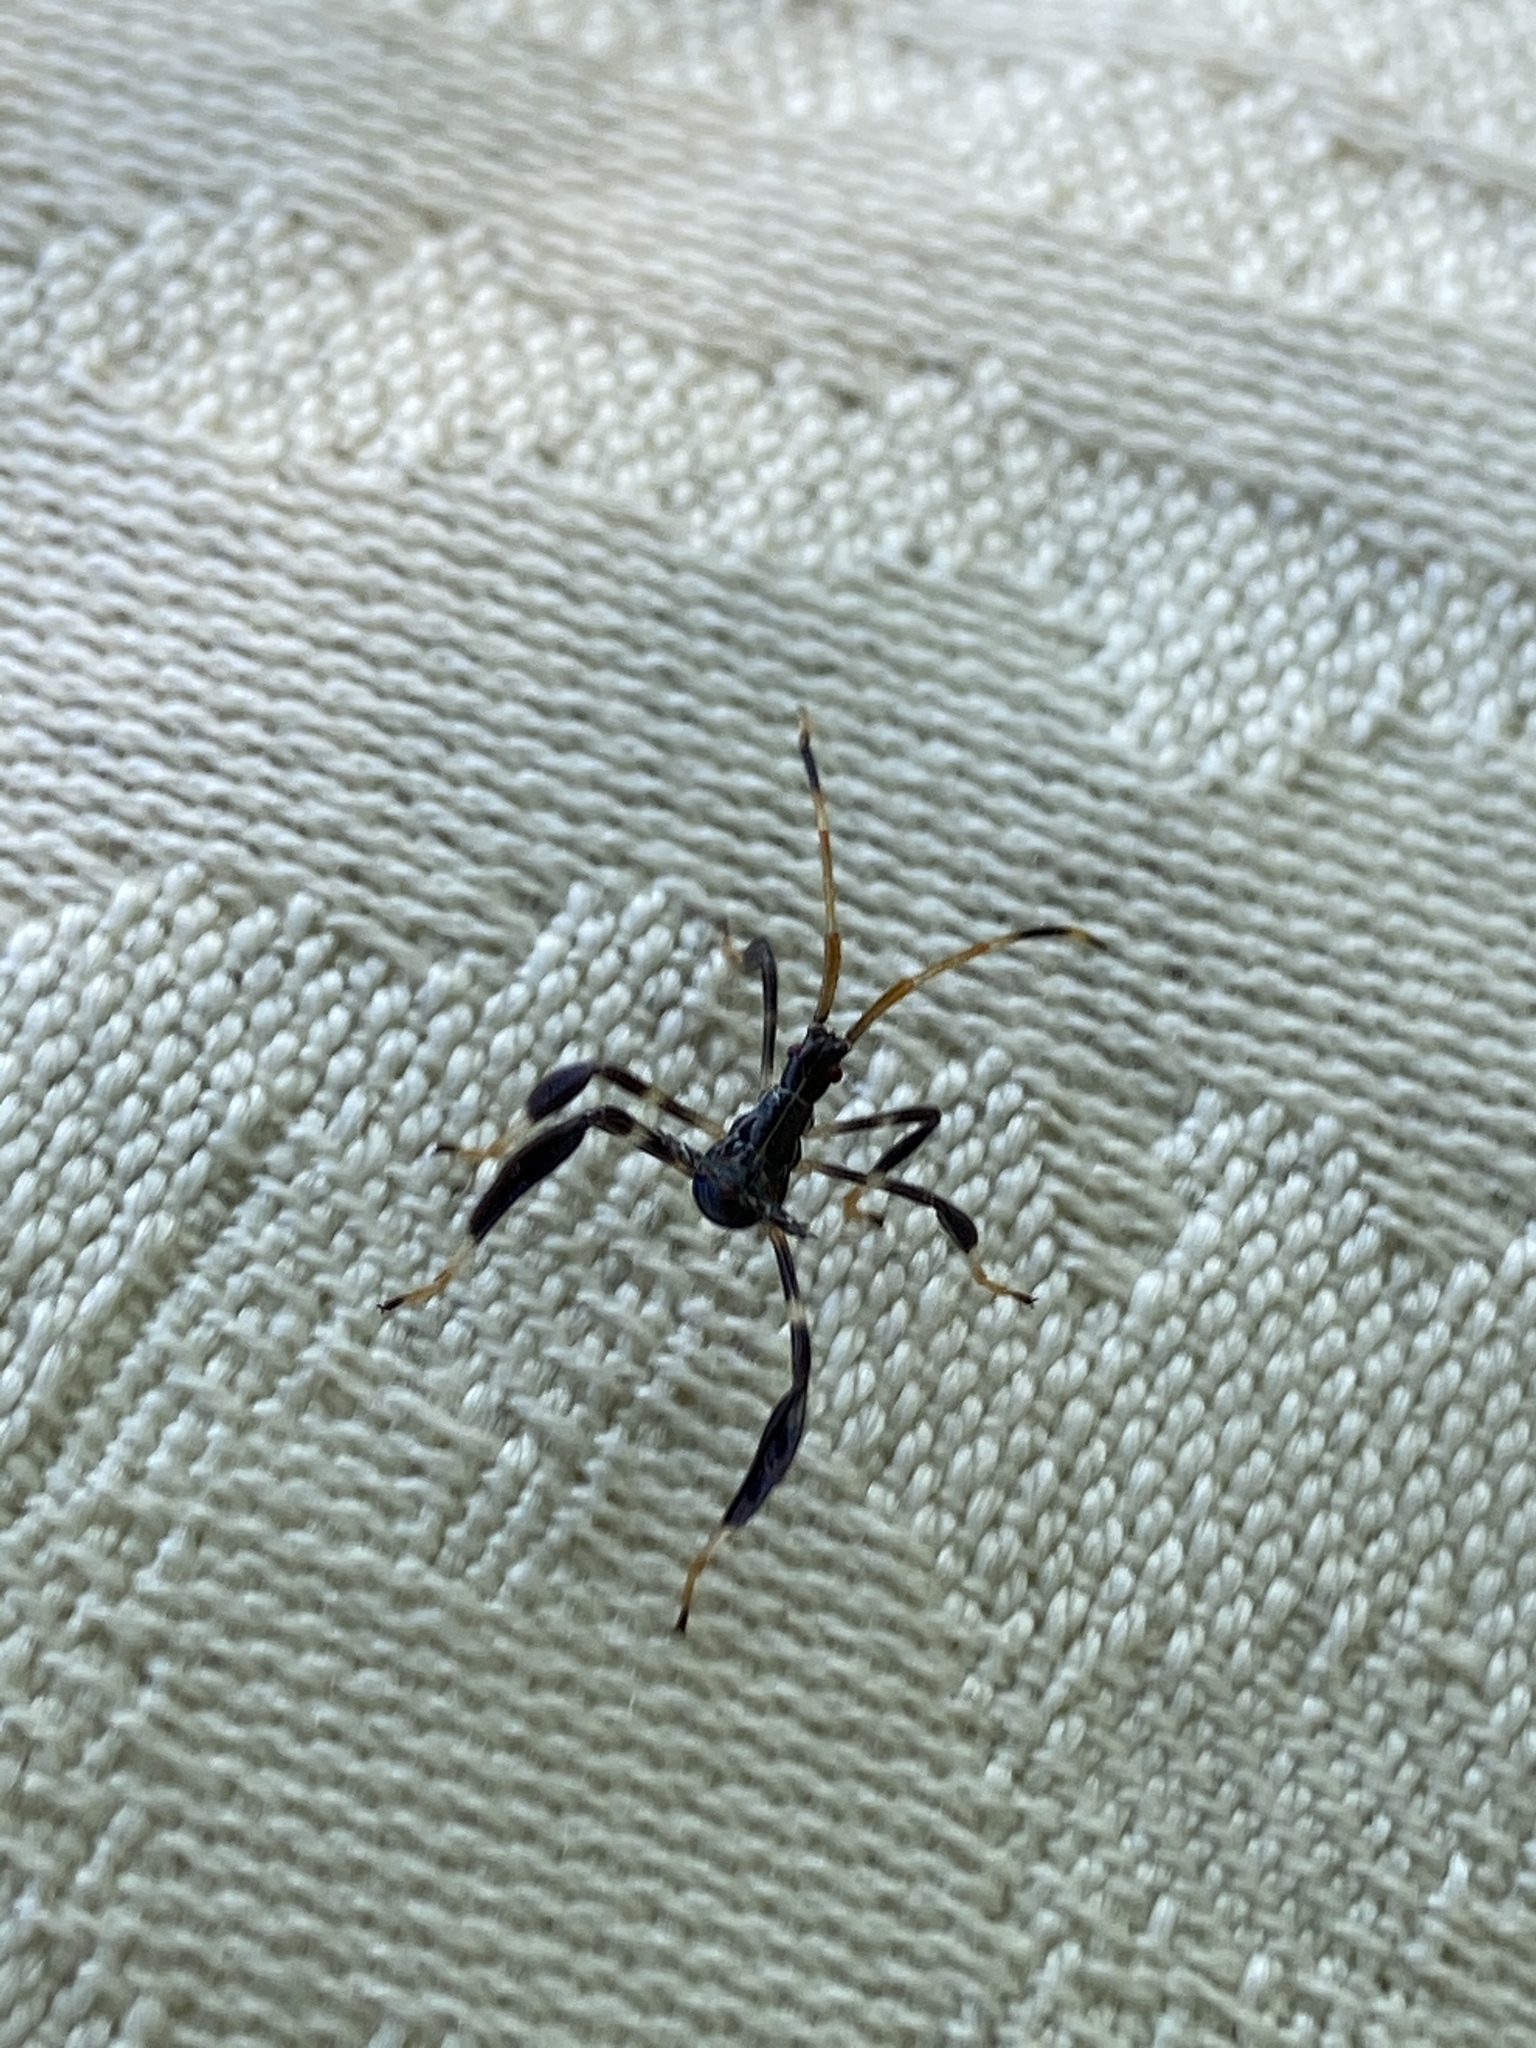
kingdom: Animalia
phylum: Arthropoda
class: Insecta
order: Hemiptera
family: Coreidae
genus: Acanthocephala
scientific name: Acanthocephala terminalis
